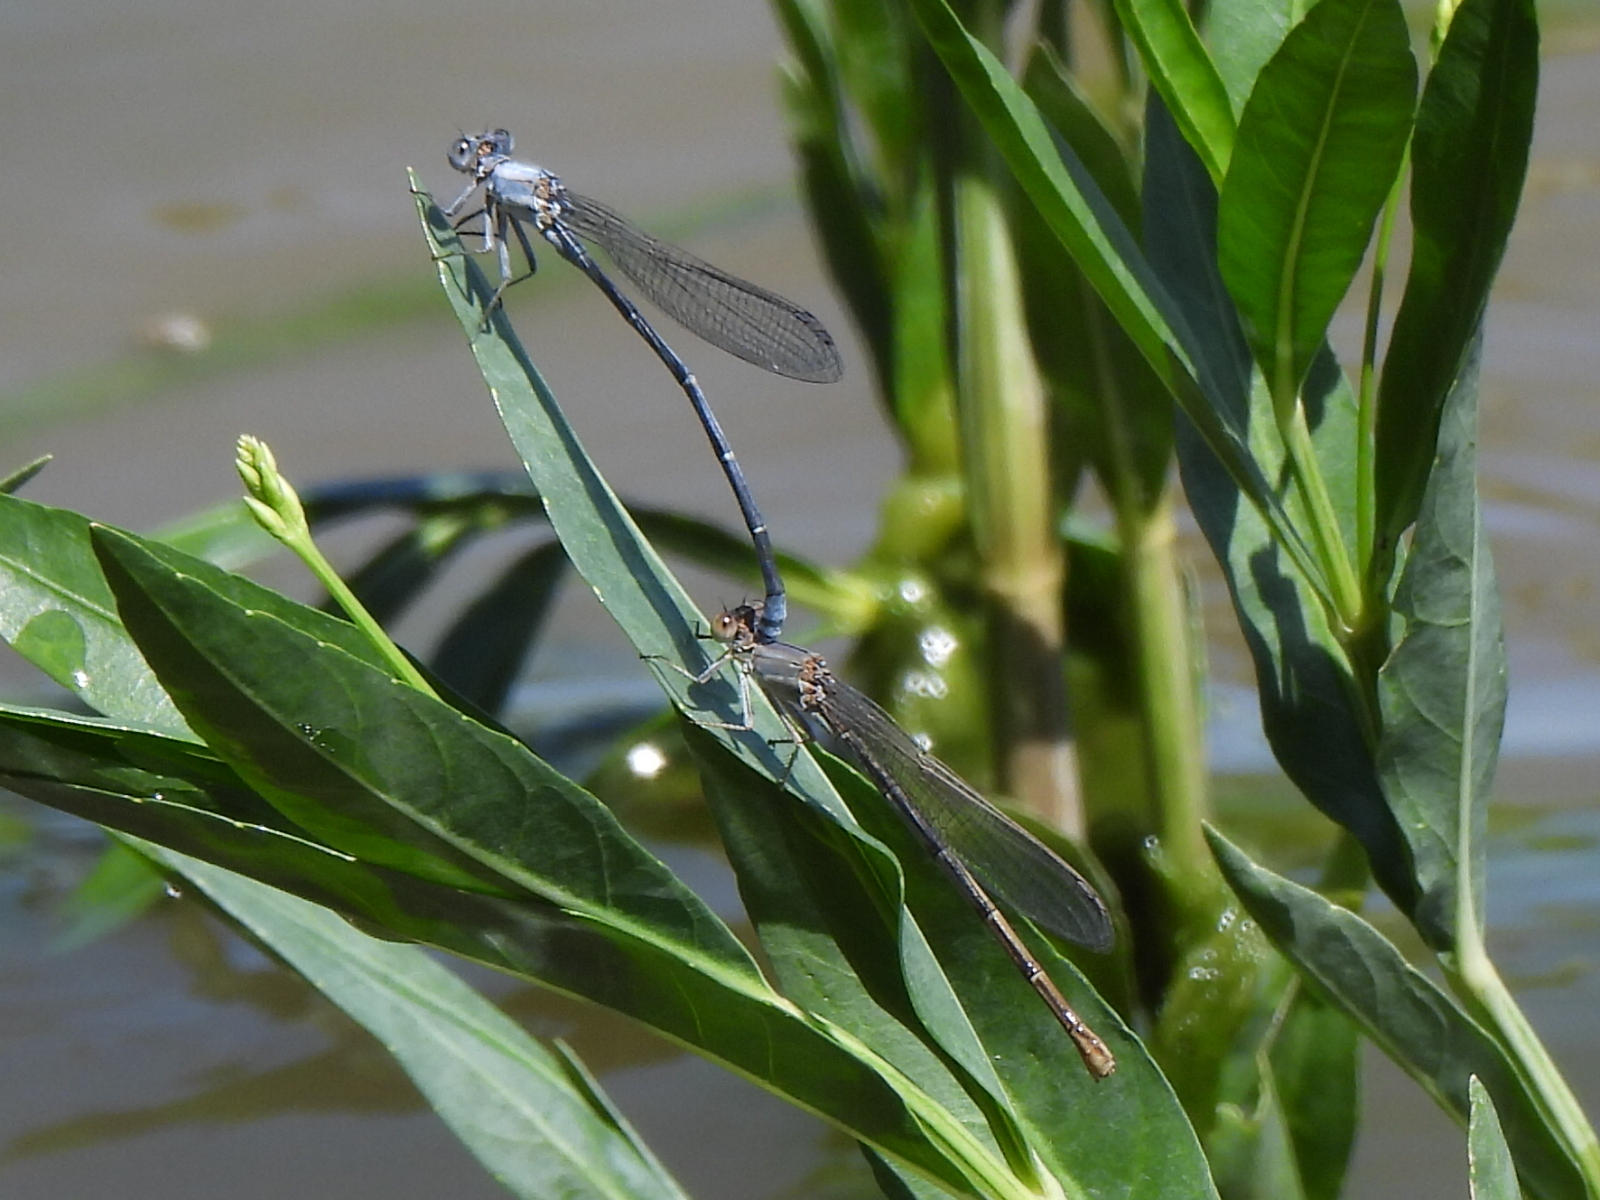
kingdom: Animalia
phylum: Arthropoda
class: Insecta
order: Odonata
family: Coenagrionidae
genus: Argia
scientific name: Argia moesta
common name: Powdered dancer
